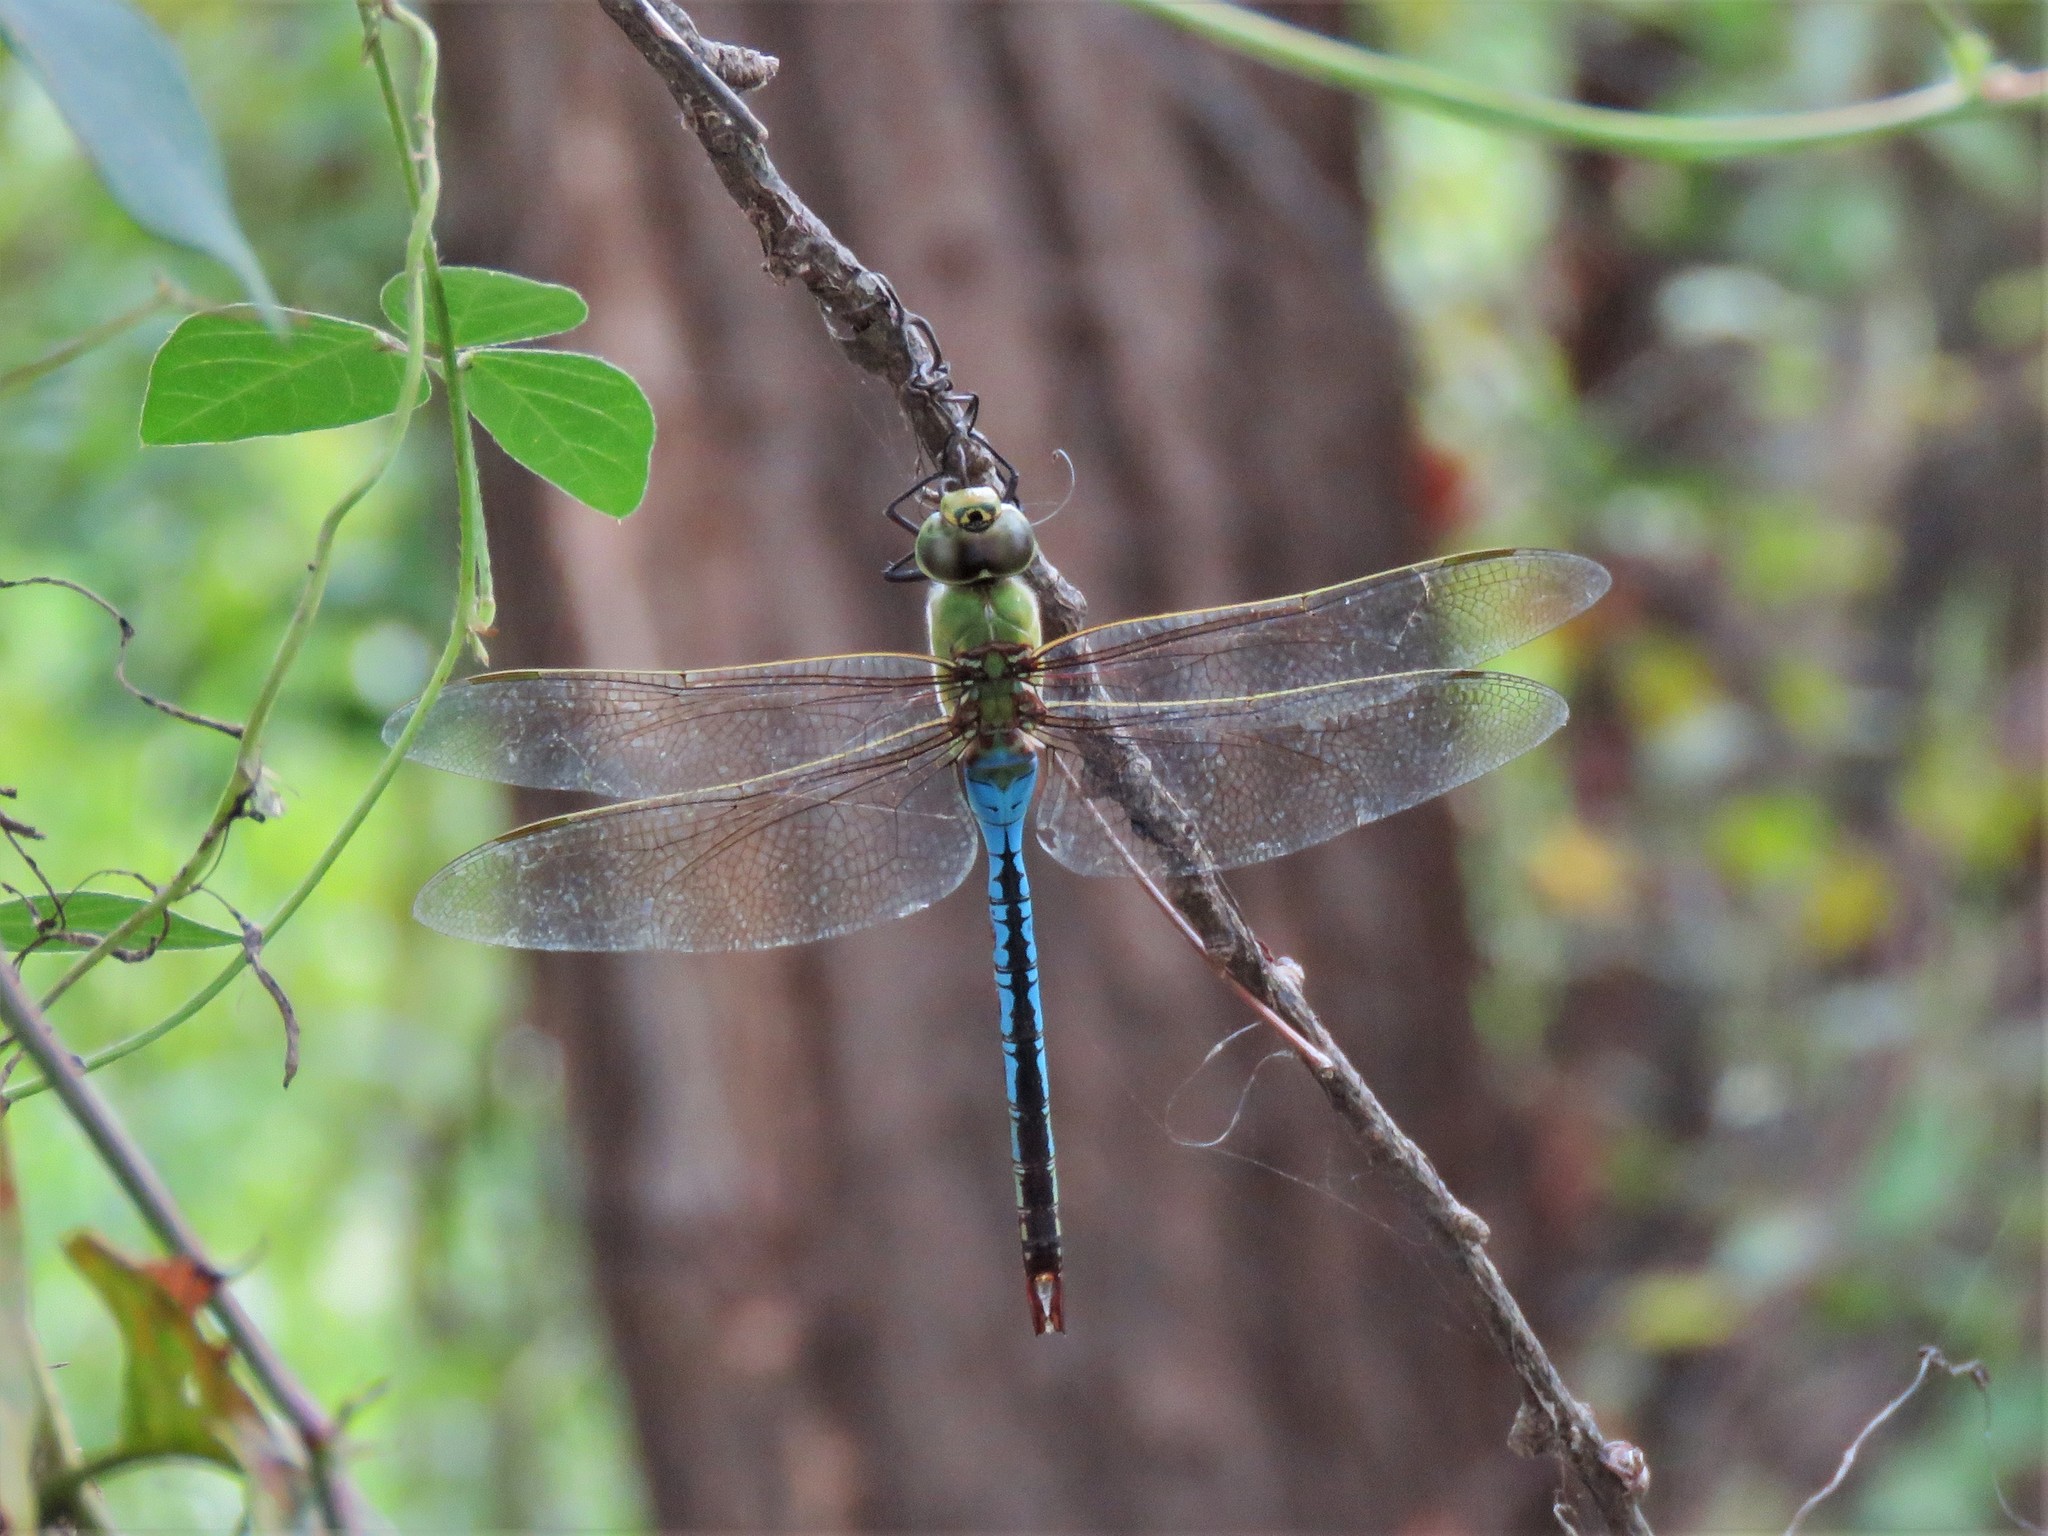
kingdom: Animalia
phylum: Arthropoda
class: Insecta
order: Odonata
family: Aeshnidae
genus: Anax
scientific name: Anax junius
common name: Common green darner
